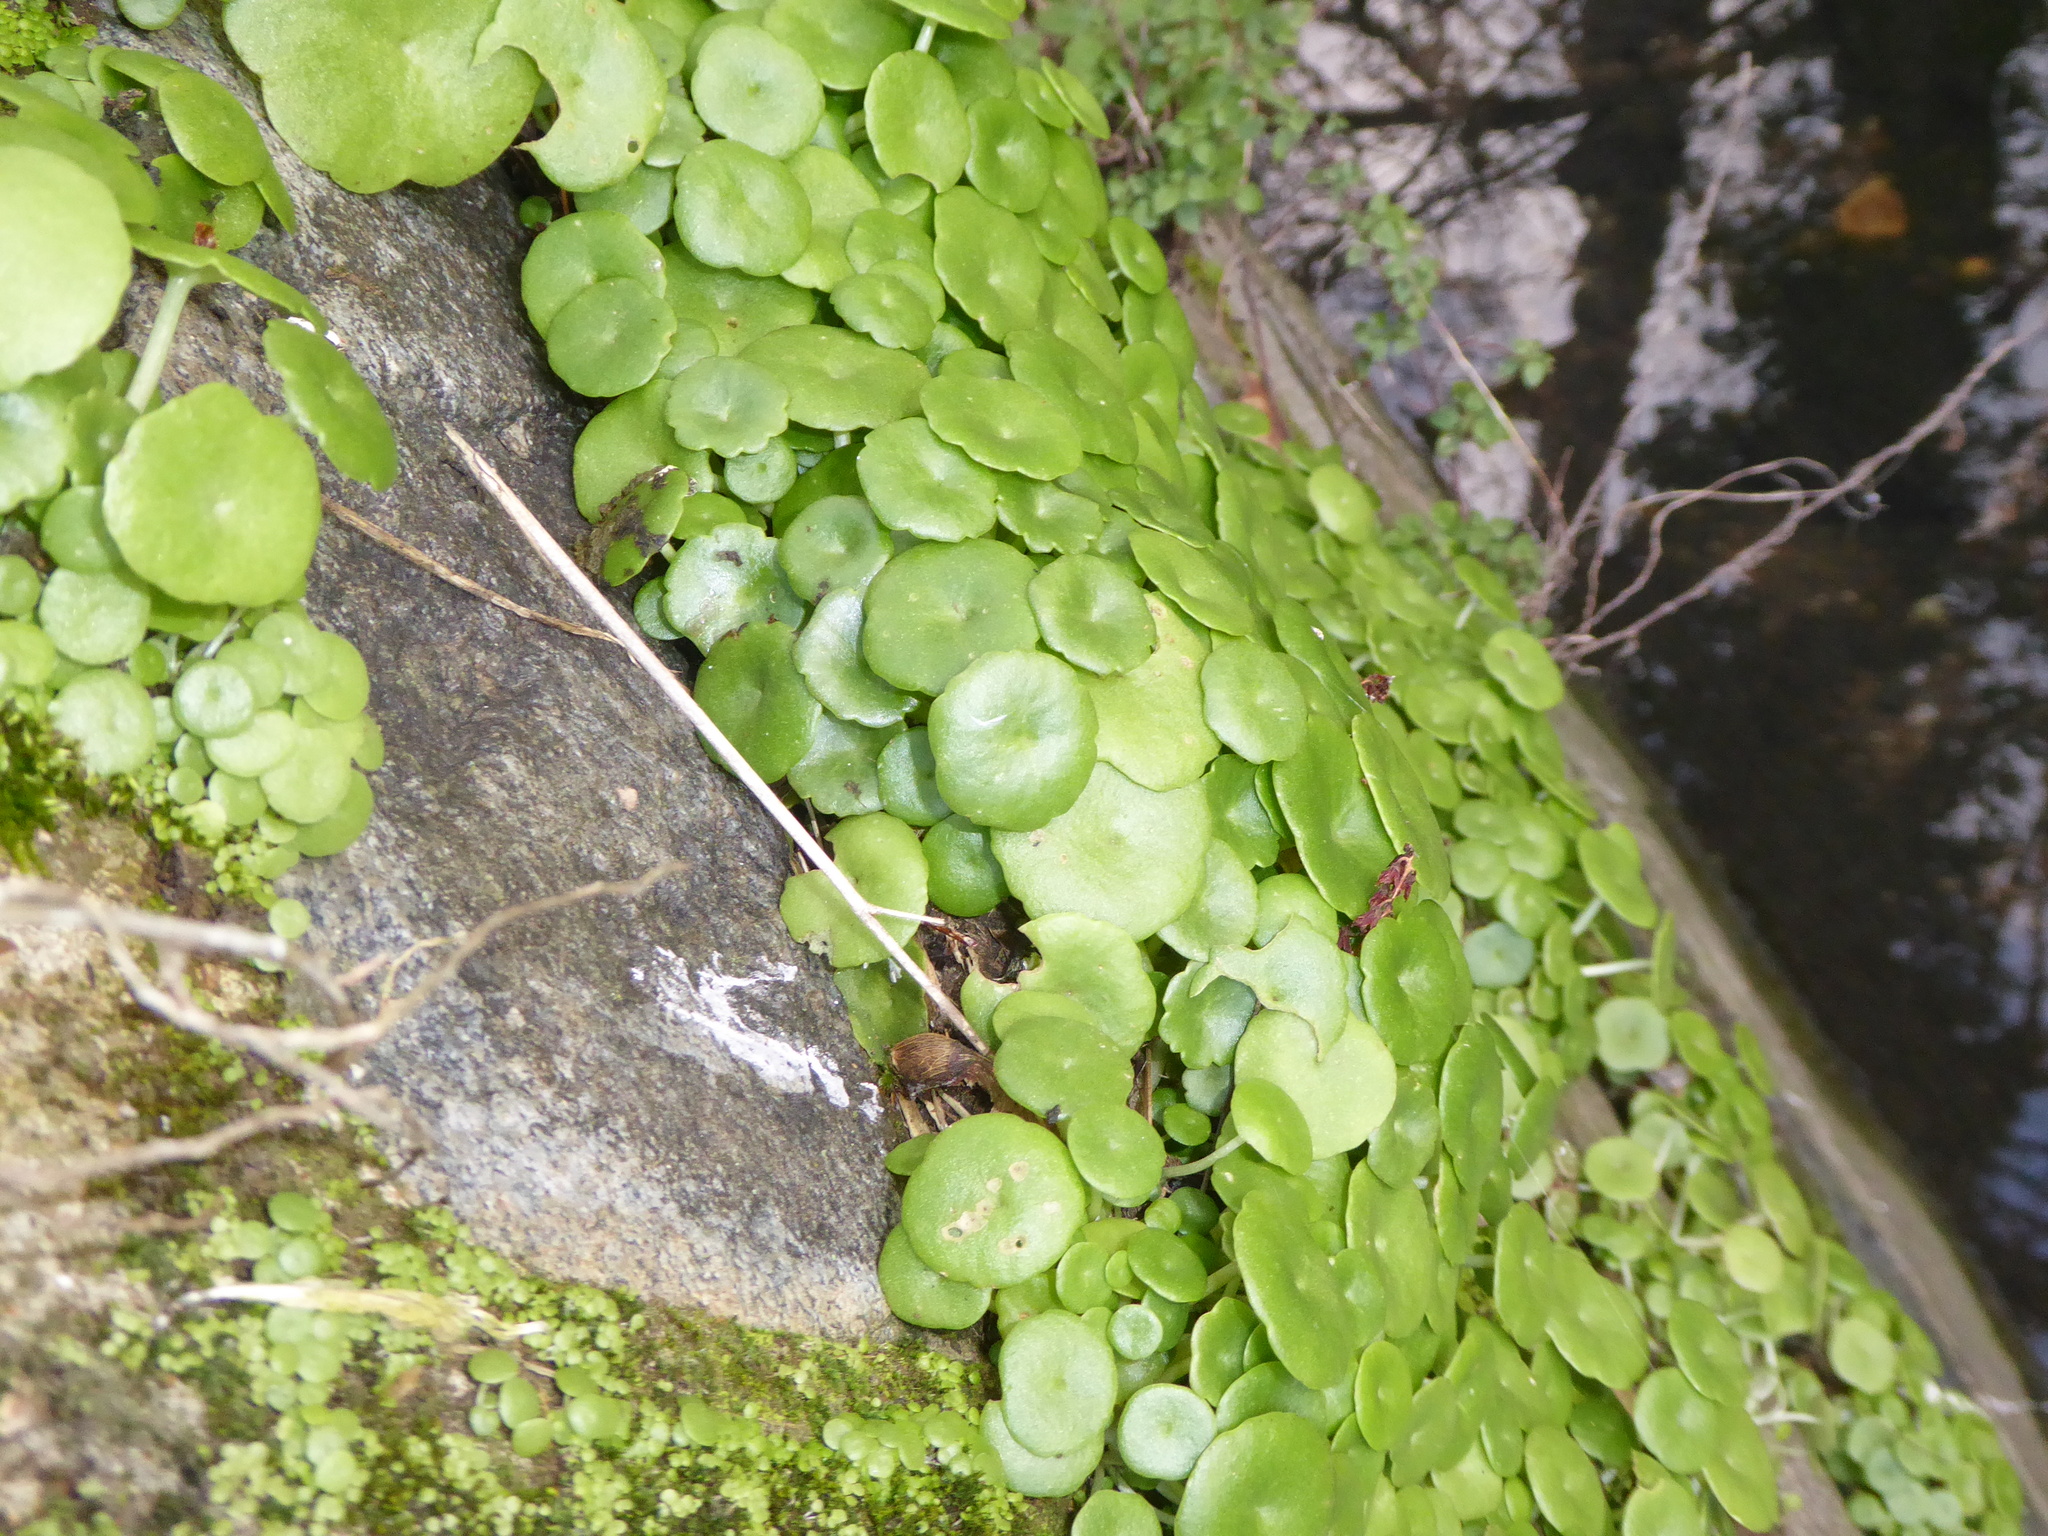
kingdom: Plantae
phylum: Tracheophyta
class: Magnoliopsida
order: Saxifragales
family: Crassulaceae
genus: Umbilicus
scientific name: Umbilicus rupestris
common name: Navelwort
